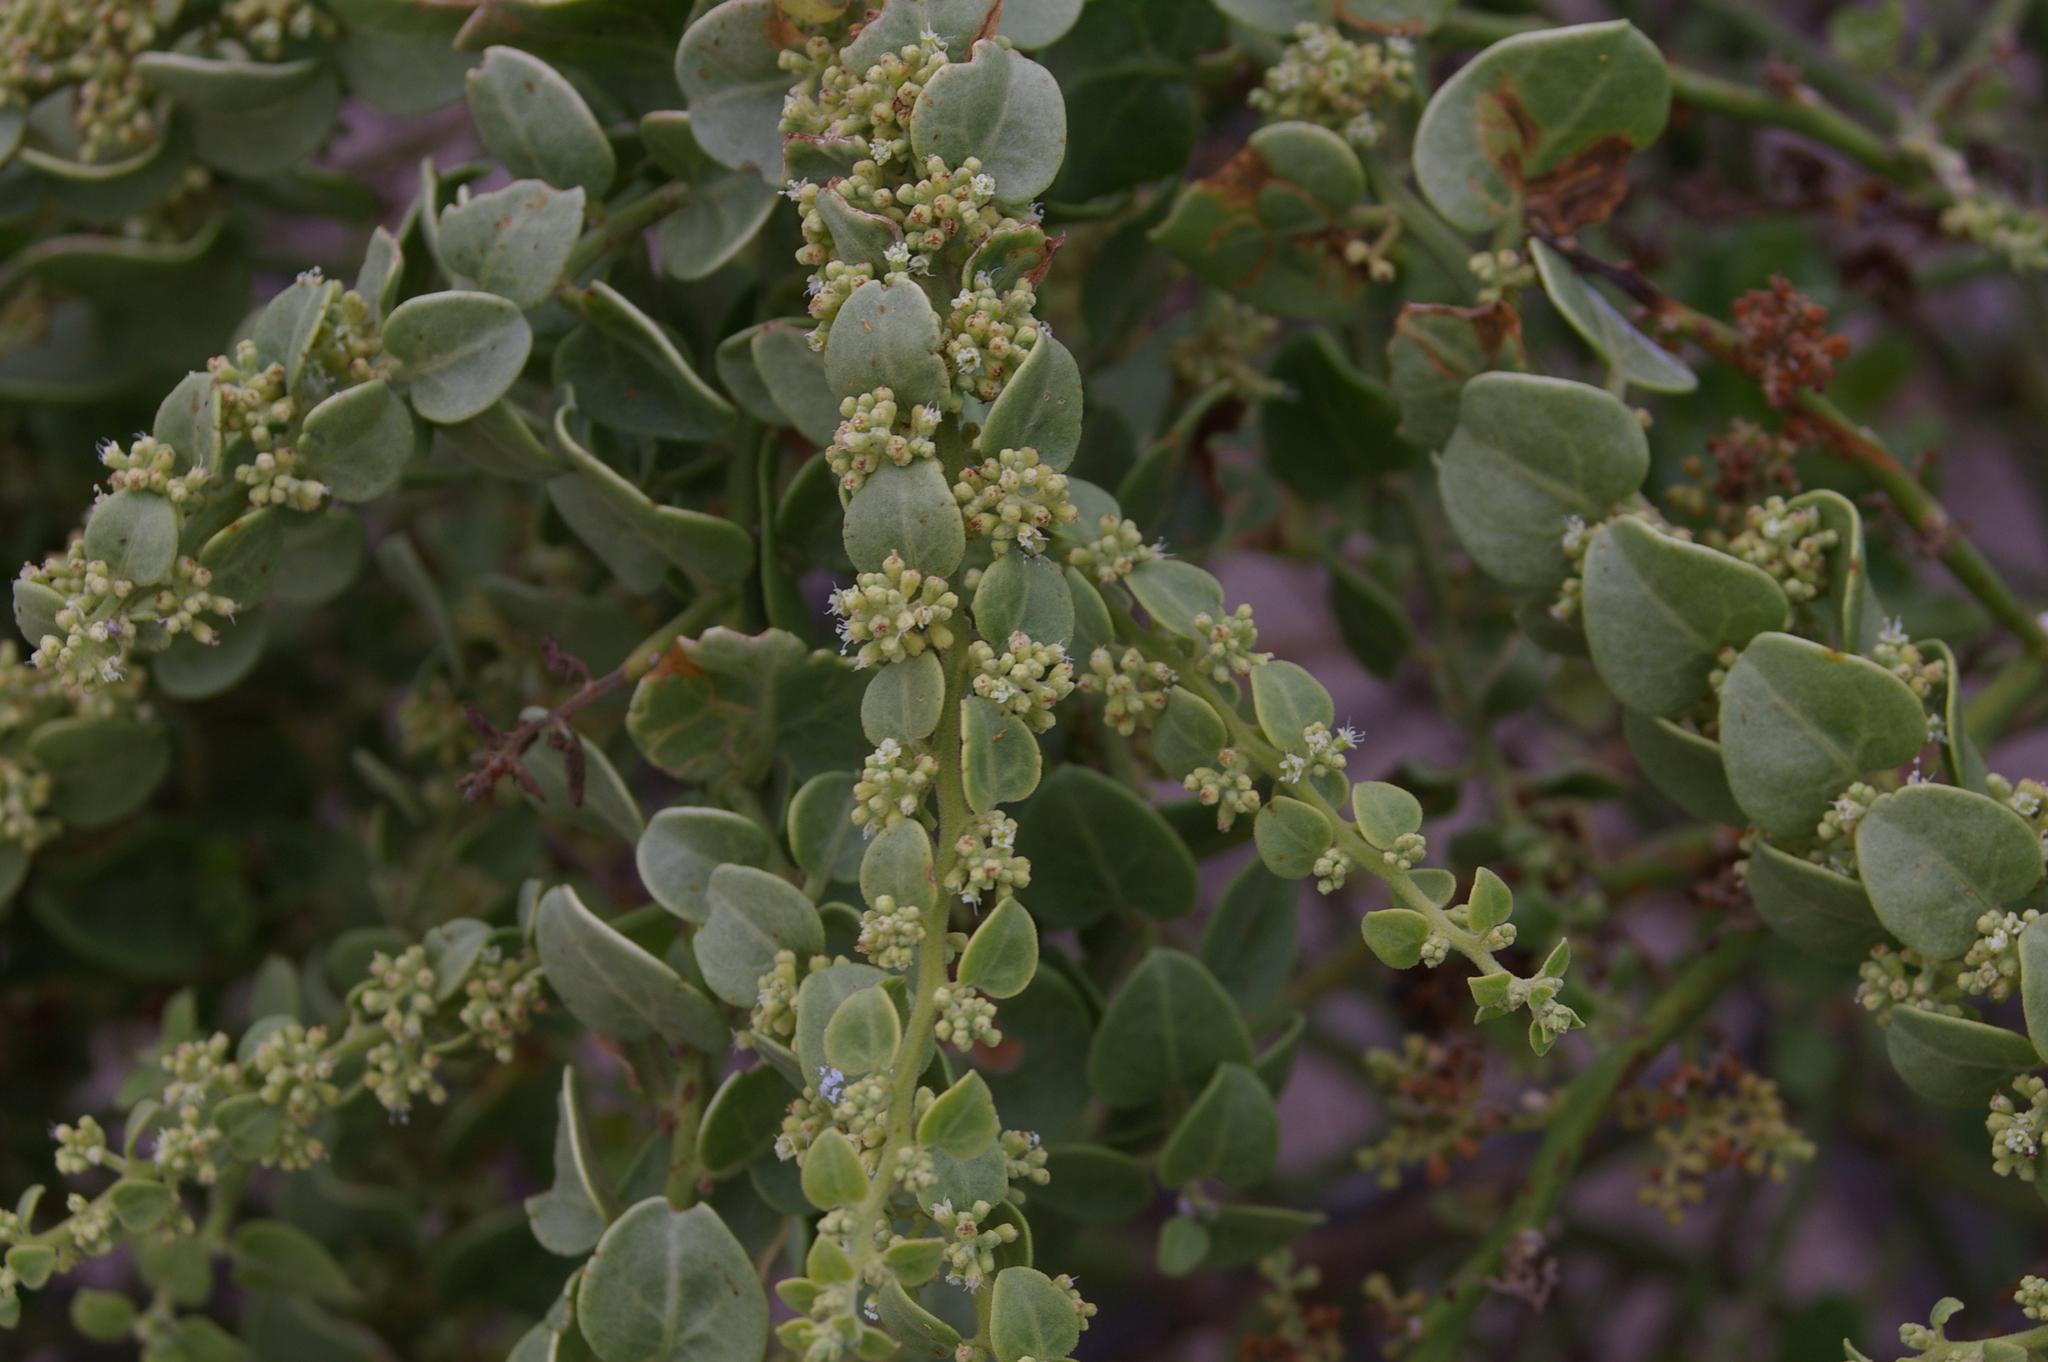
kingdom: Plantae
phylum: Tracheophyta
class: Magnoliopsida
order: Caryophyllales
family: Nyctaginaceae
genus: Cryptocarpus
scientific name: Cryptocarpus pyriformis
